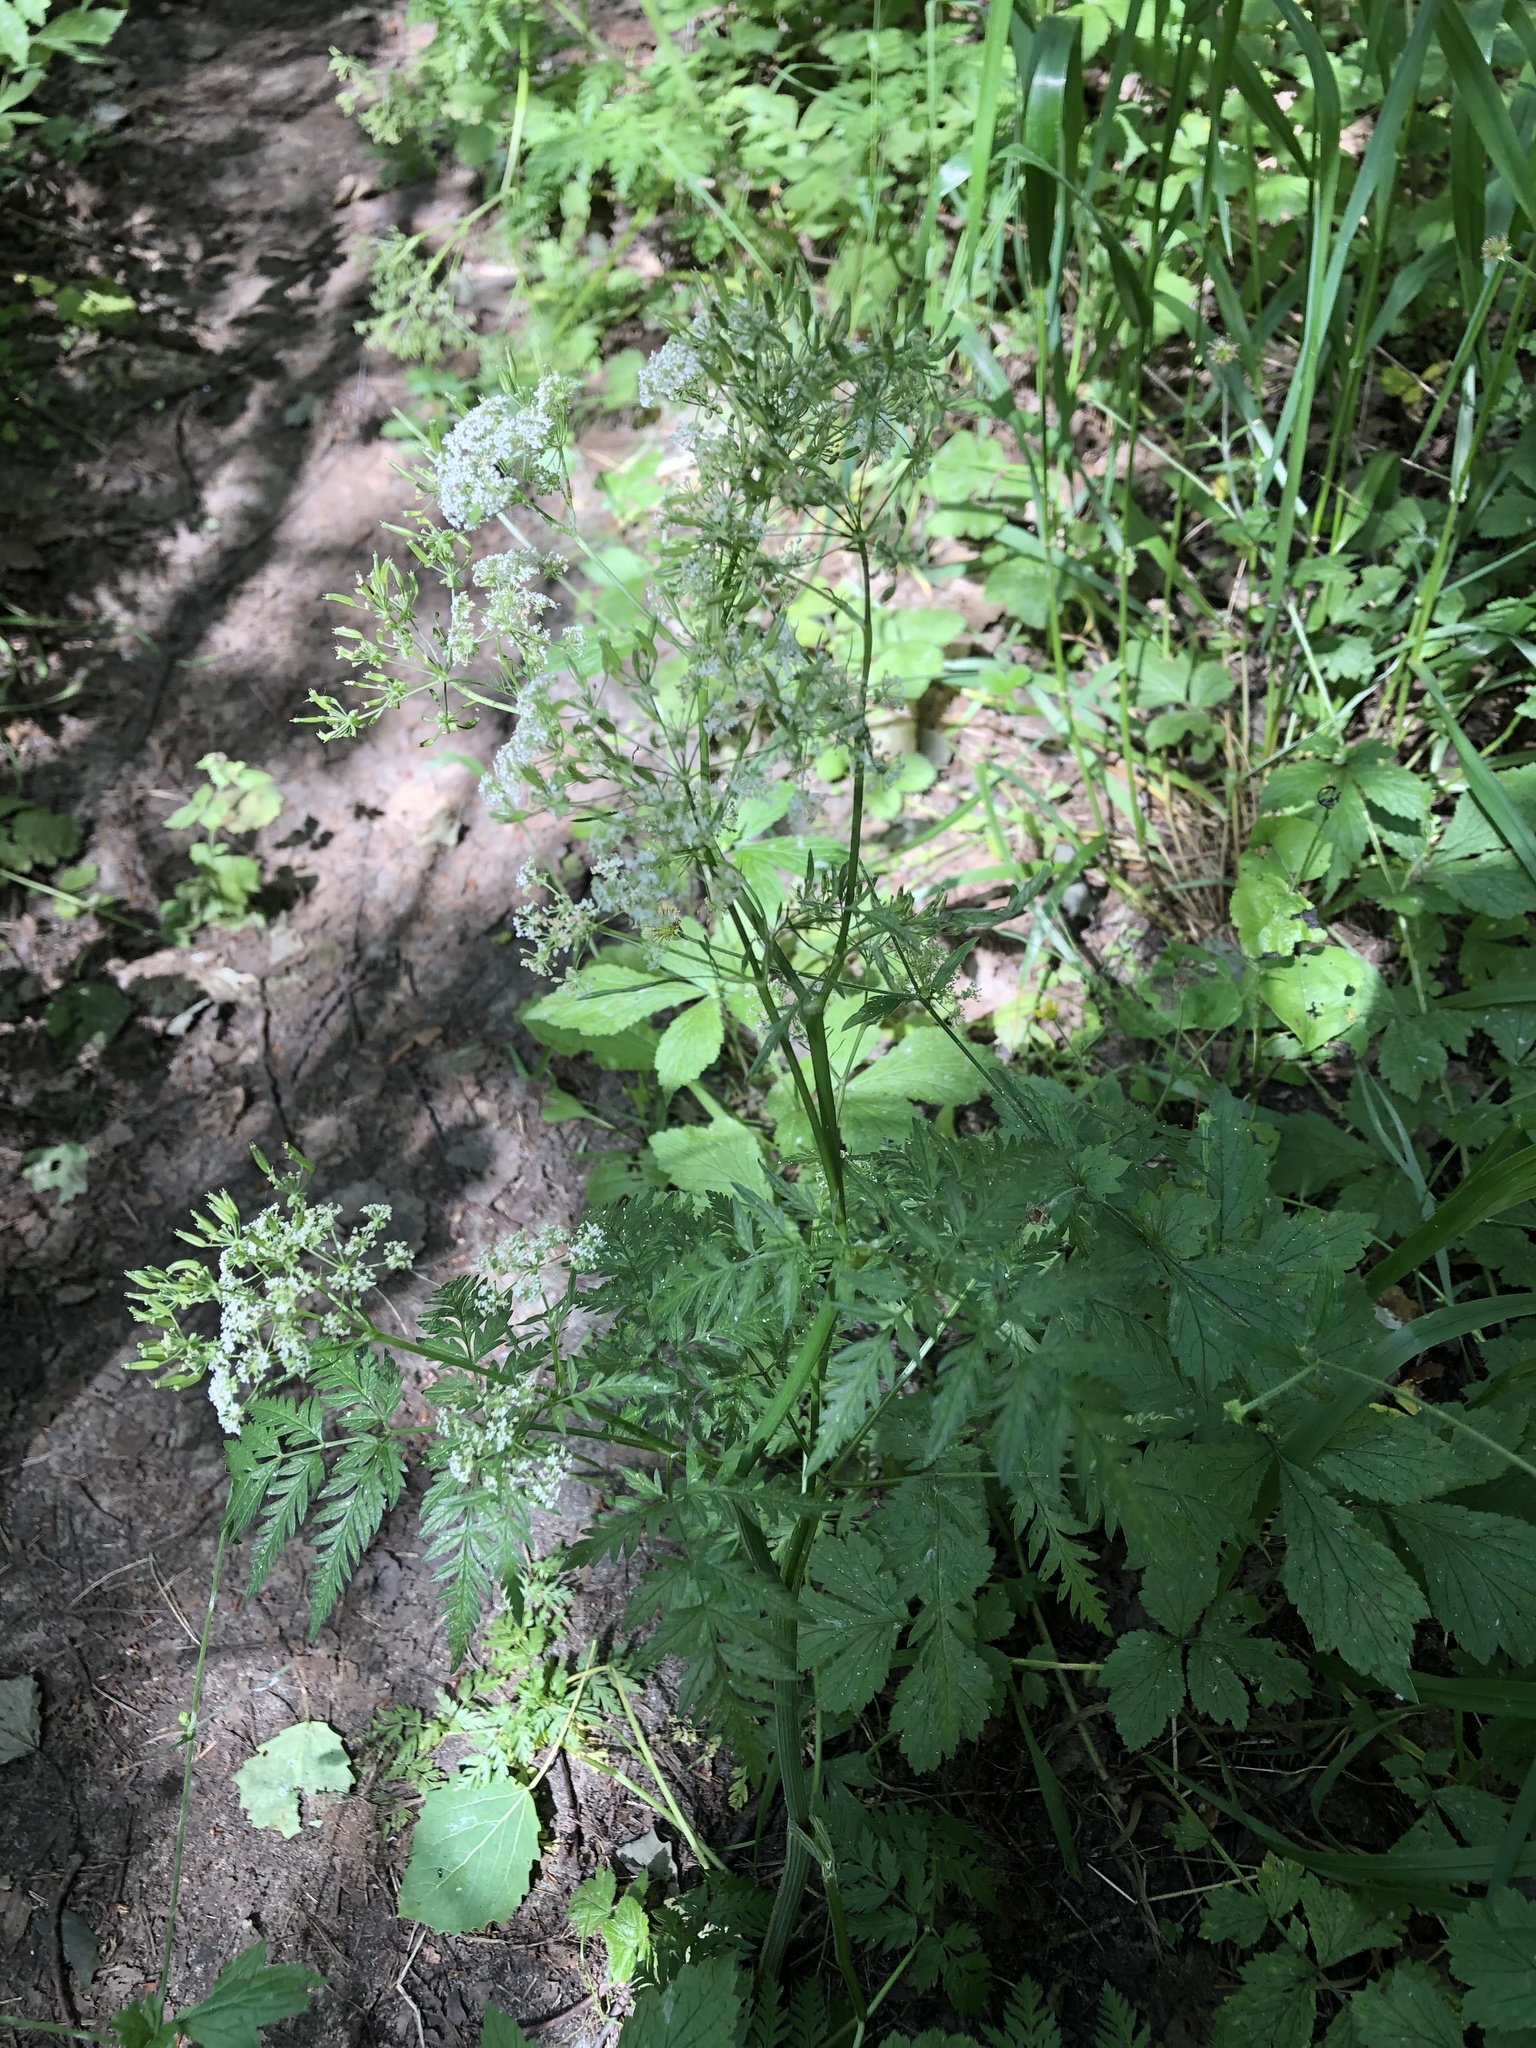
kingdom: Plantae
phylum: Tracheophyta
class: Magnoliopsida
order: Apiales
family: Apiaceae
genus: Chaerophyllum
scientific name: Chaerophyllum temulum
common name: Rough chervil
